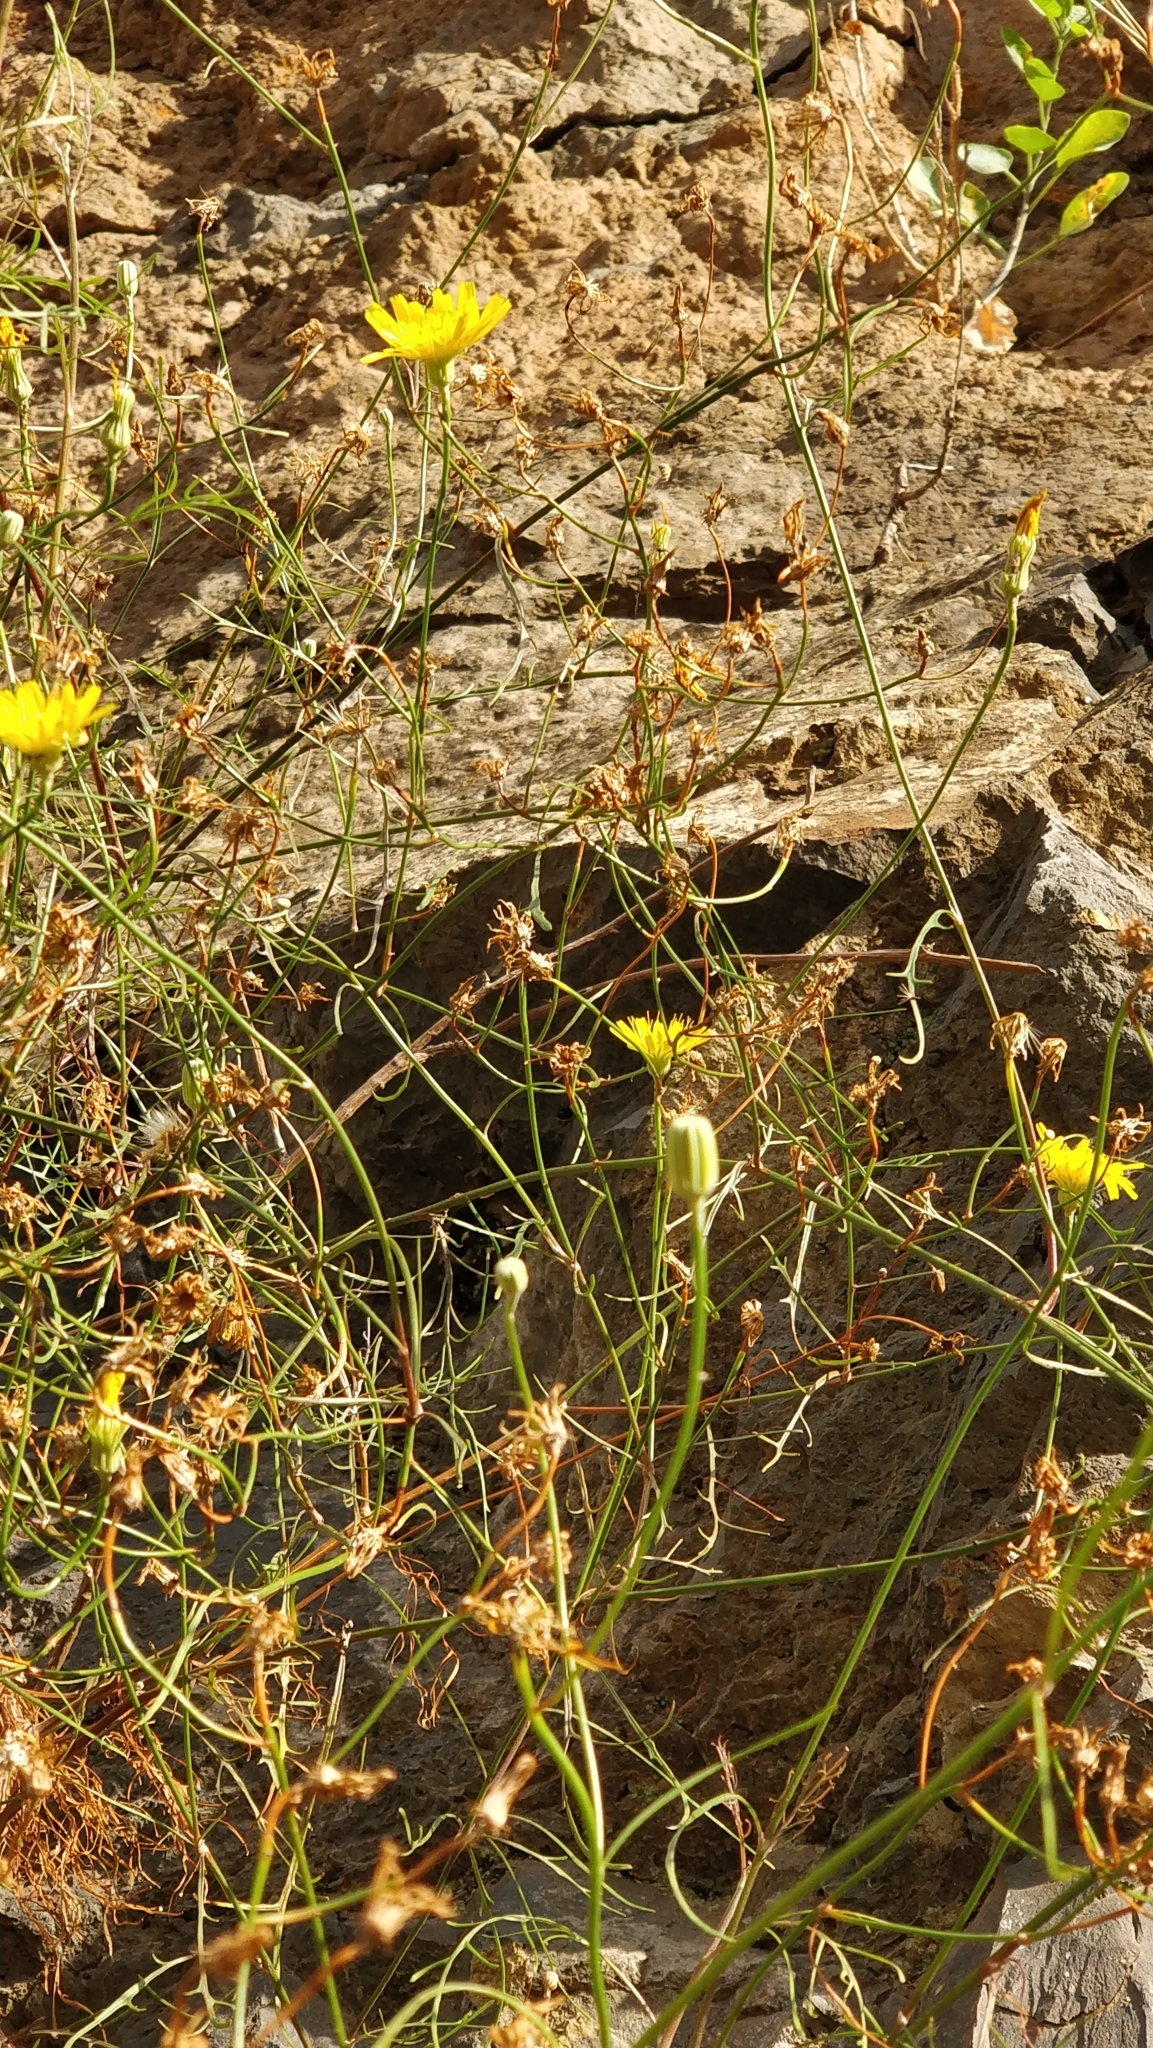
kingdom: Plantae
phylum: Tracheophyta
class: Magnoliopsida
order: Asterales
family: Asteraceae
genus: Tolpis
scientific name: Tolpis succulenta
